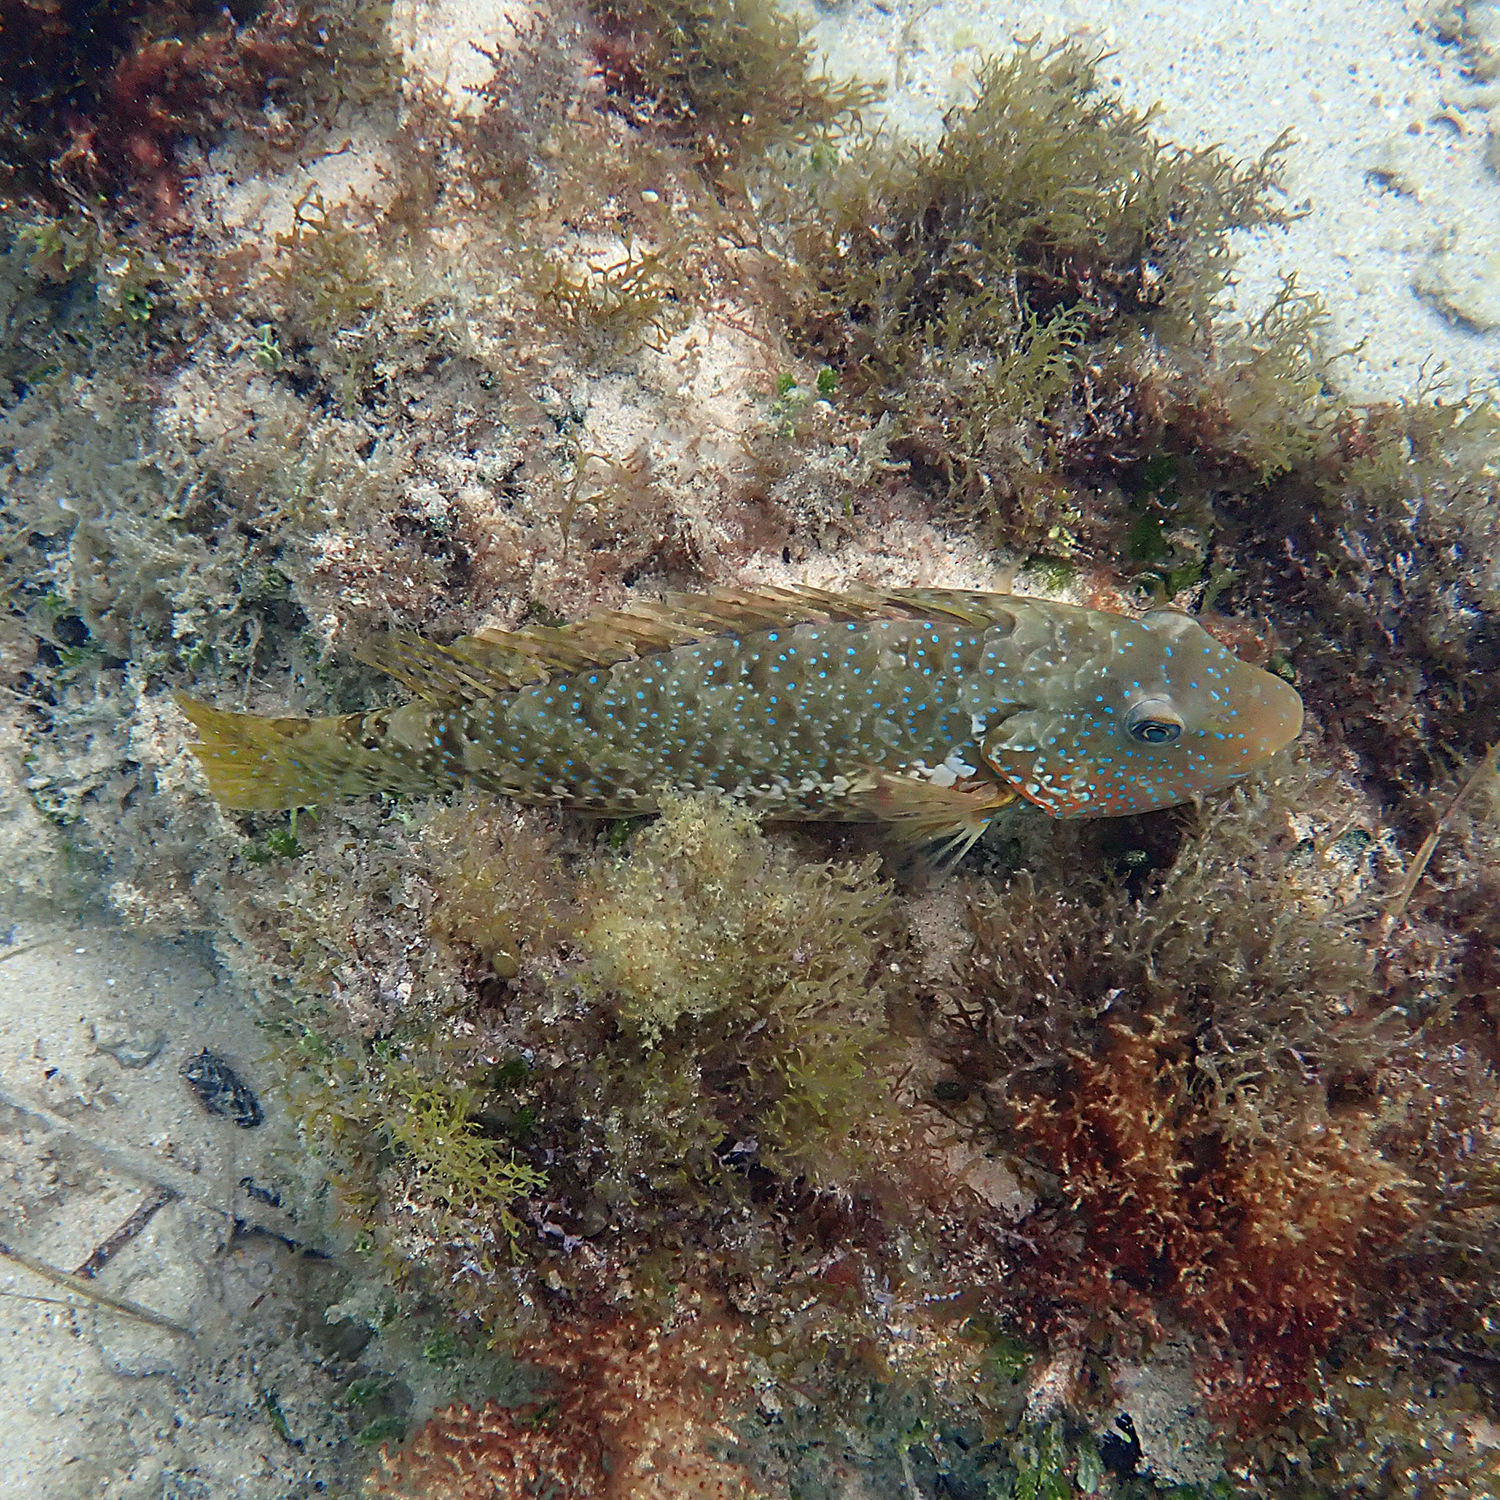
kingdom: Animalia
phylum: Chordata
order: Perciformes
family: Scaridae
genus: Leptoscarus
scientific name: Leptoscarus vaigiensis
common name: Marbled parrotfish
